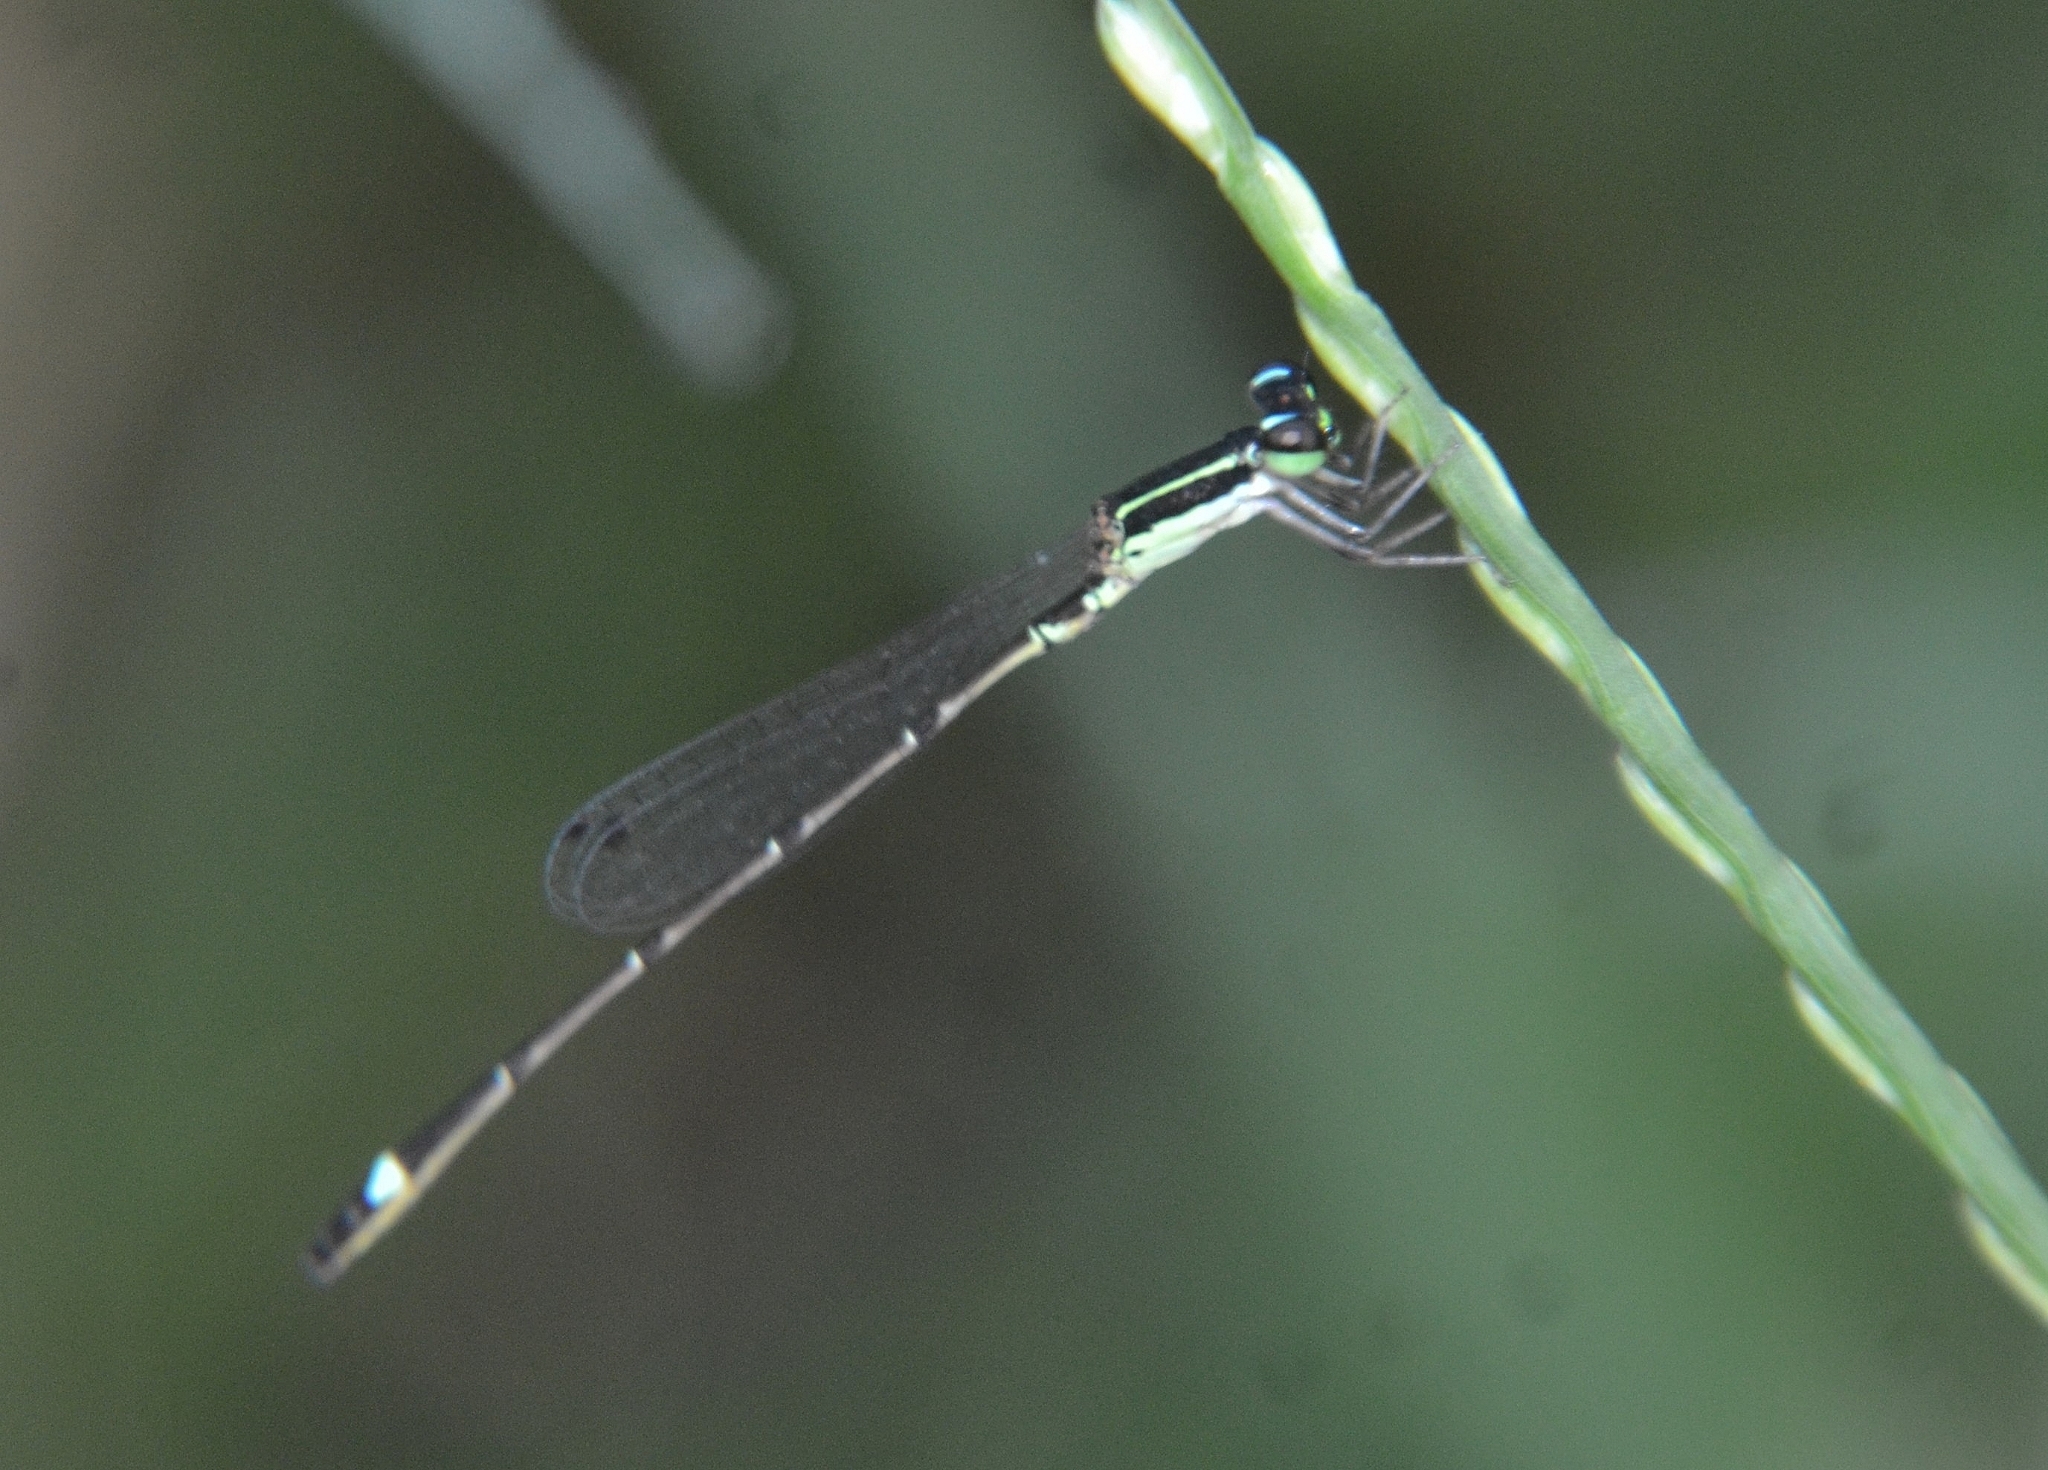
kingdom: Animalia
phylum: Arthropoda
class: Insecta
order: Odonata
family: Coenagrionidae
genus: Mortonagrion
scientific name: Mortonagrion varralli
